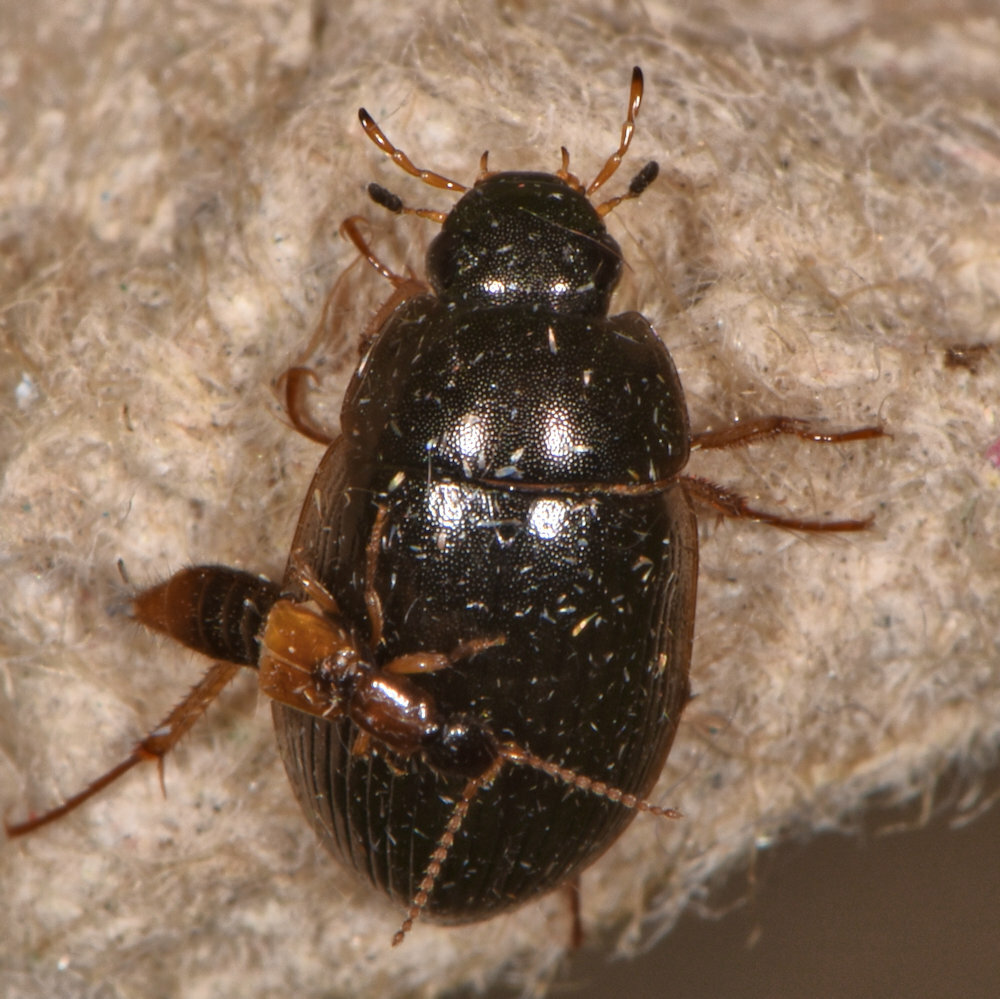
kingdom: Animalia
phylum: Arthropoda
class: Insecta
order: Coleoptera
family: Hydrophilidae
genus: Hydrobius
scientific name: Hydrobius fuscipes
